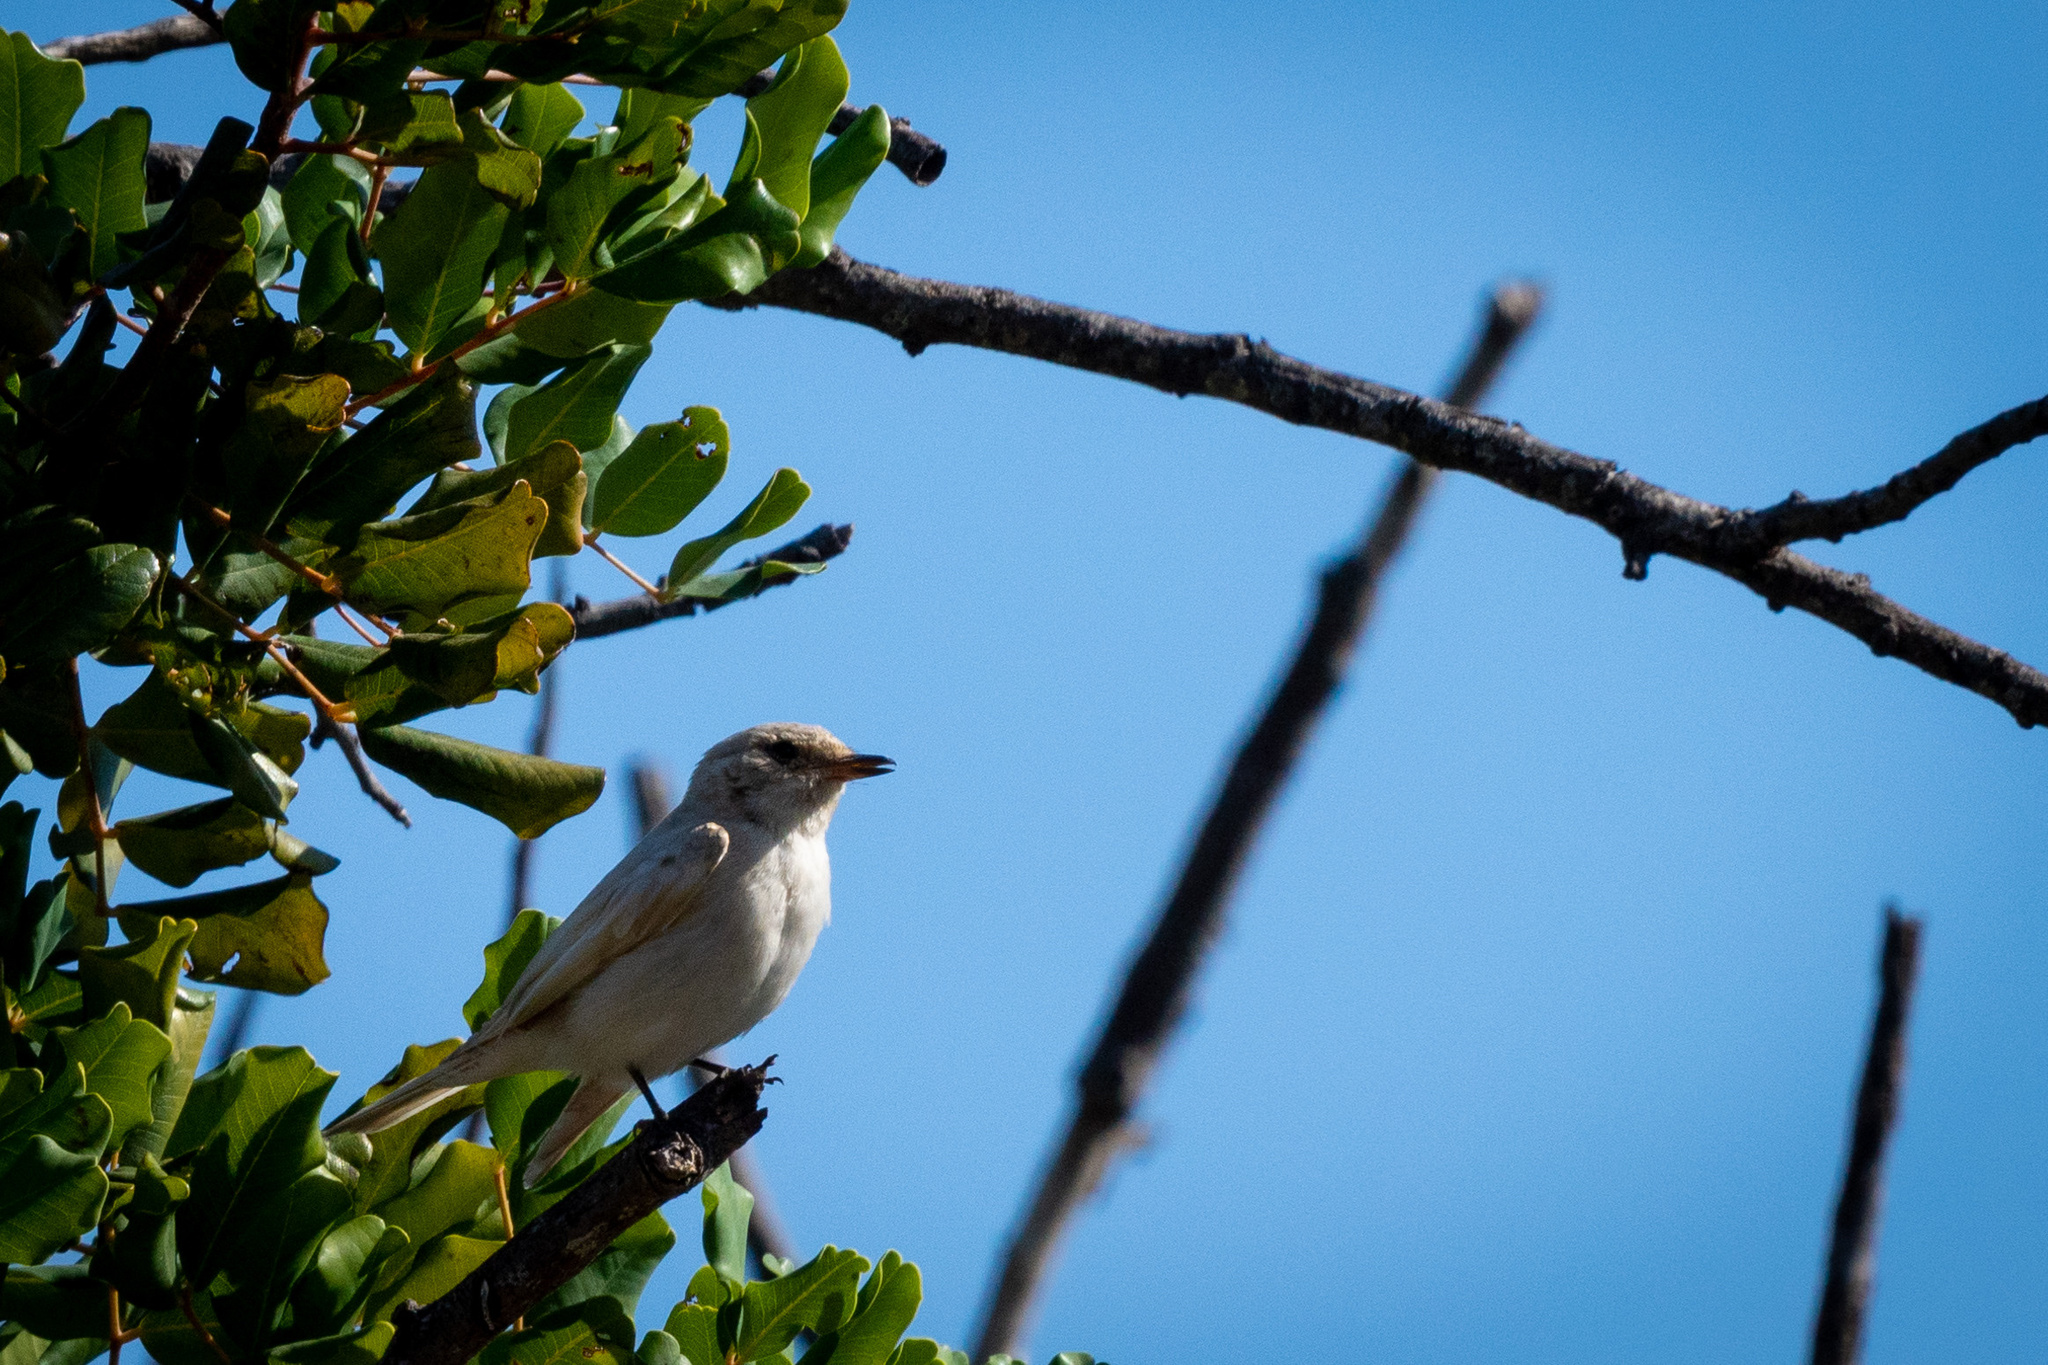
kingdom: Animalia
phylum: Chordata
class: Aves
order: Passeriformes
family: Muscicapidae
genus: Muscicapa
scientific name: Muscicapa striata
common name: Spotted flycatcher
